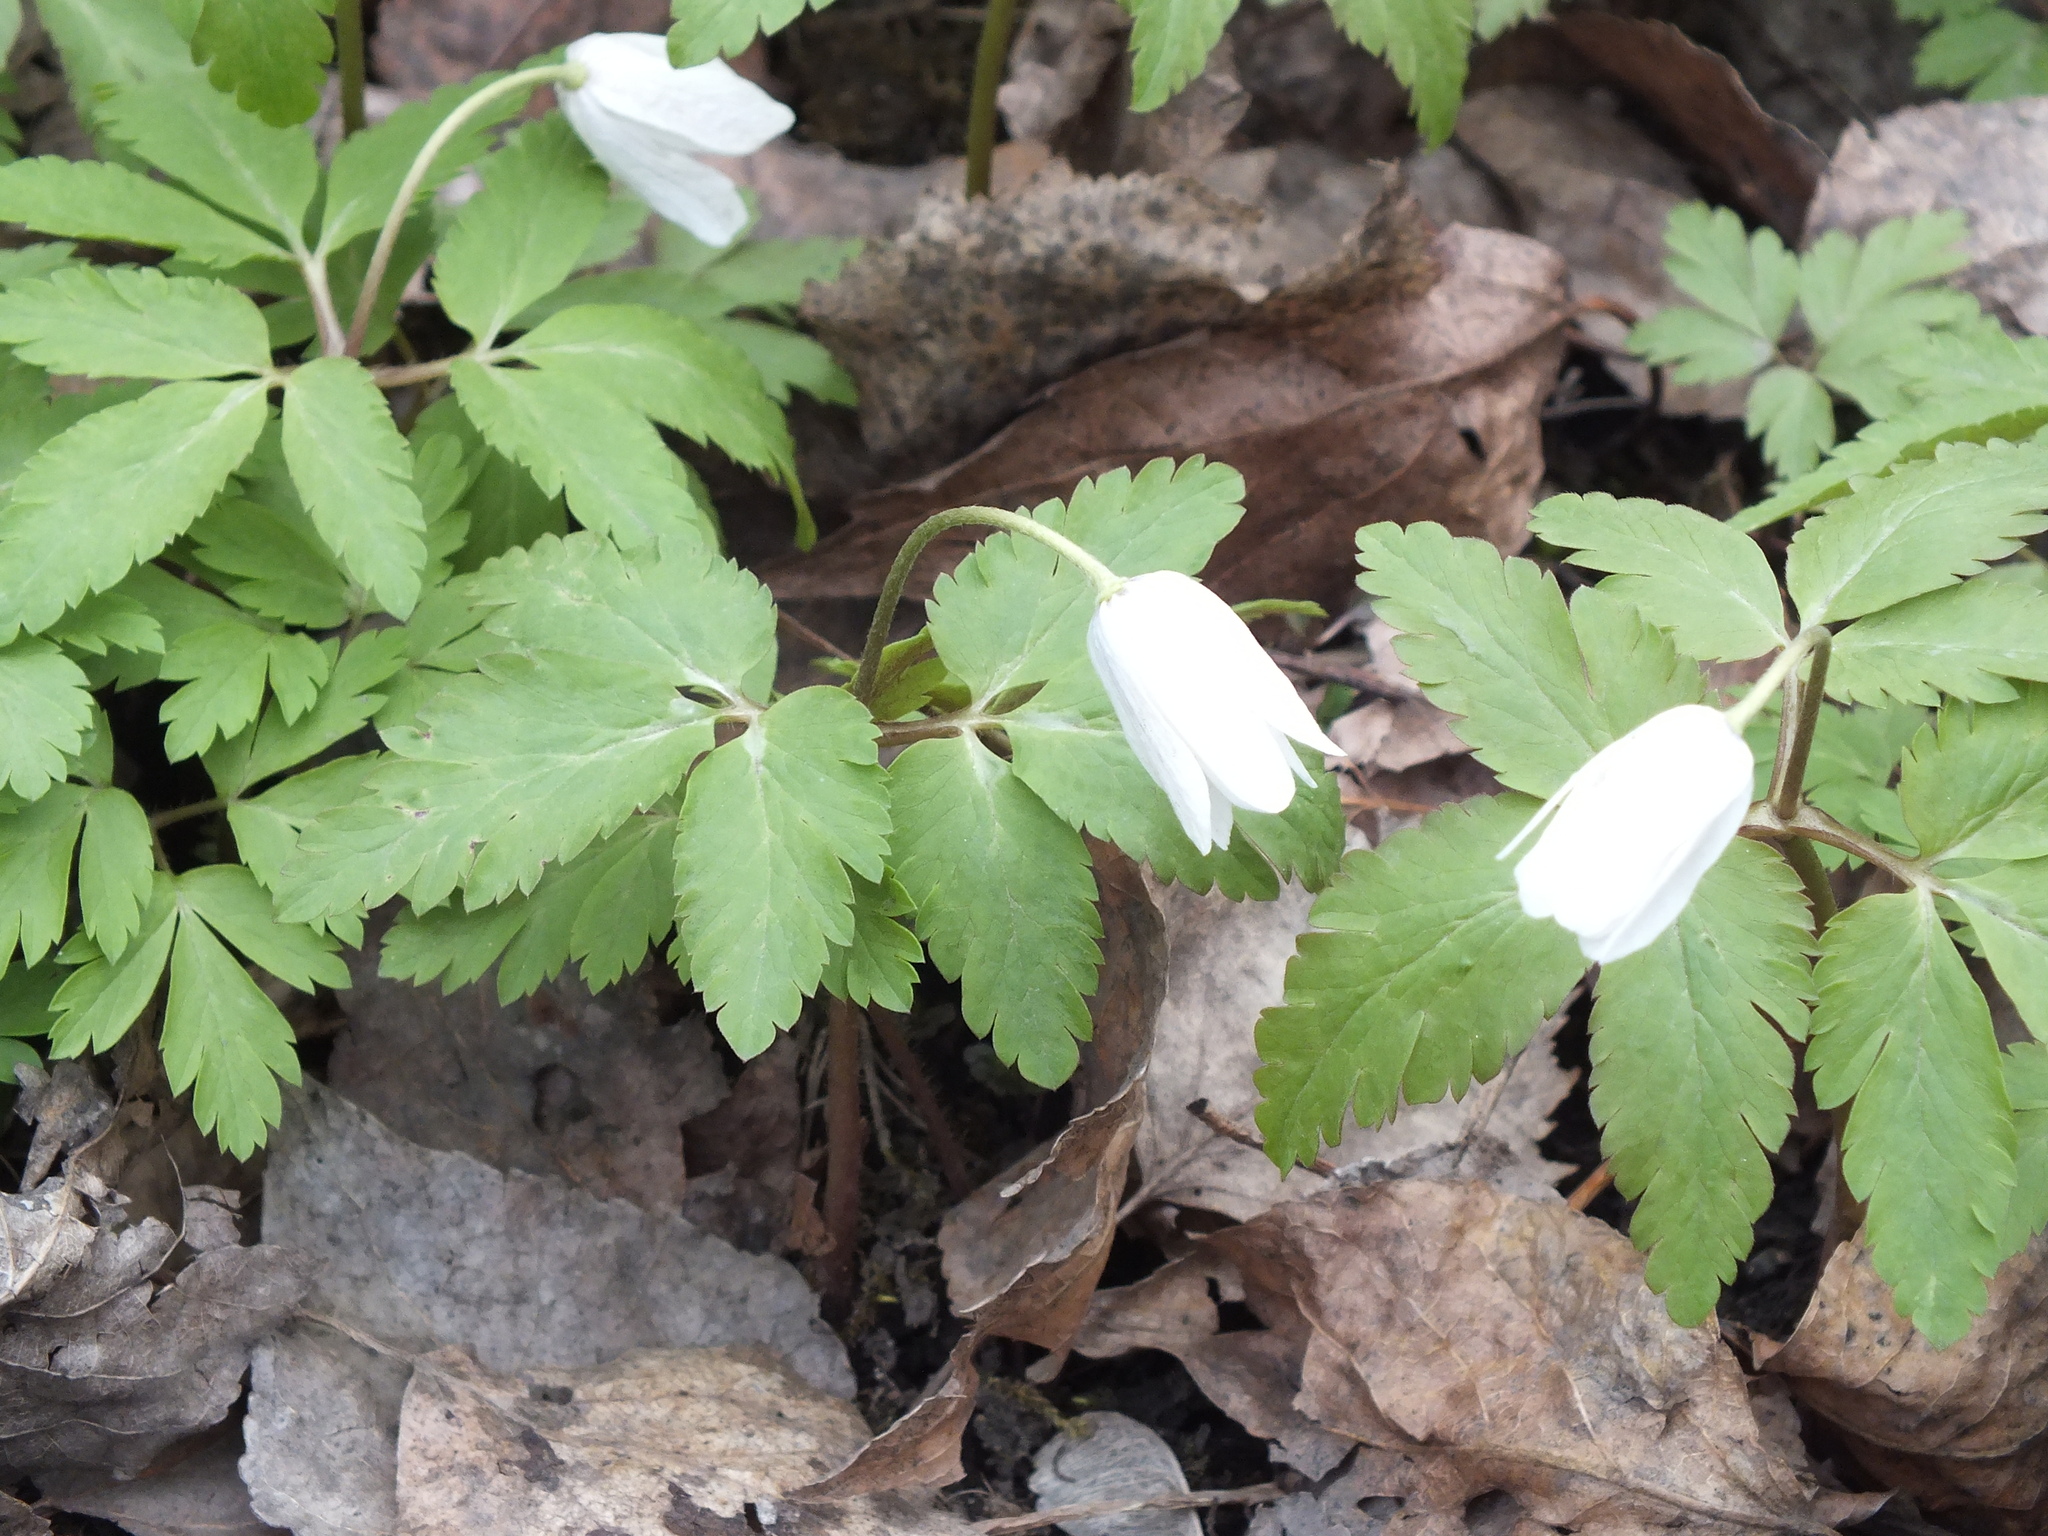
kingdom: Plantae
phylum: Tracheophyta
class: Magnoliopsida
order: Ranunculales
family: Ranunculaceae
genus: Anemone
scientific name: Anemone altaica
